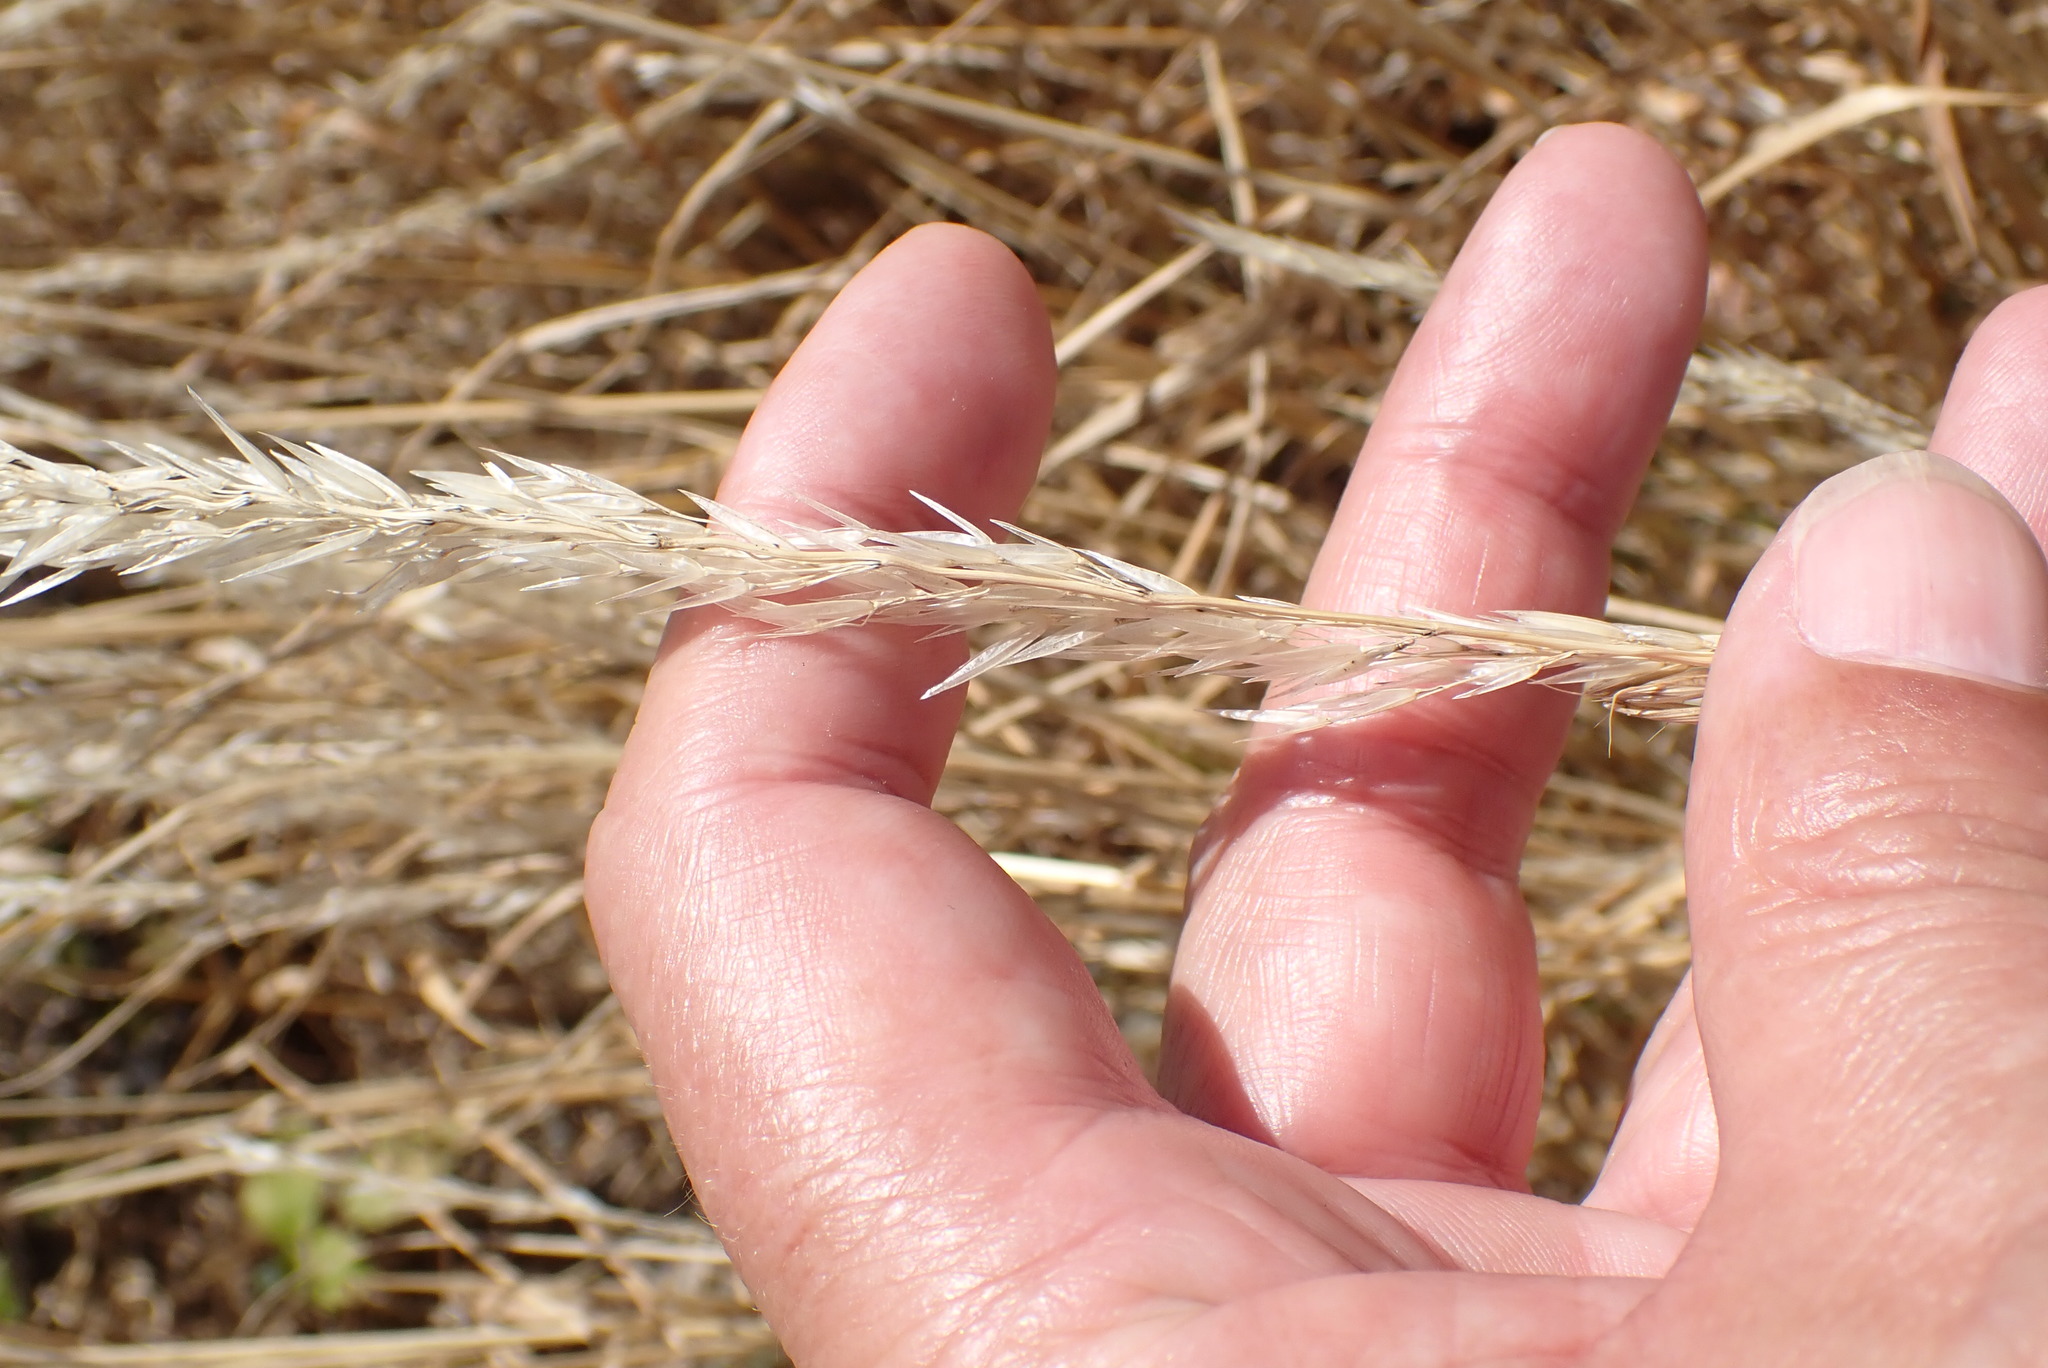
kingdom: Plantae
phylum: Tracheophyta
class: Liliopsida
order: Poales
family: Poaceae
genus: Arrhenatherum
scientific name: Arrhenatherum elatius
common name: Tall oatgrass
